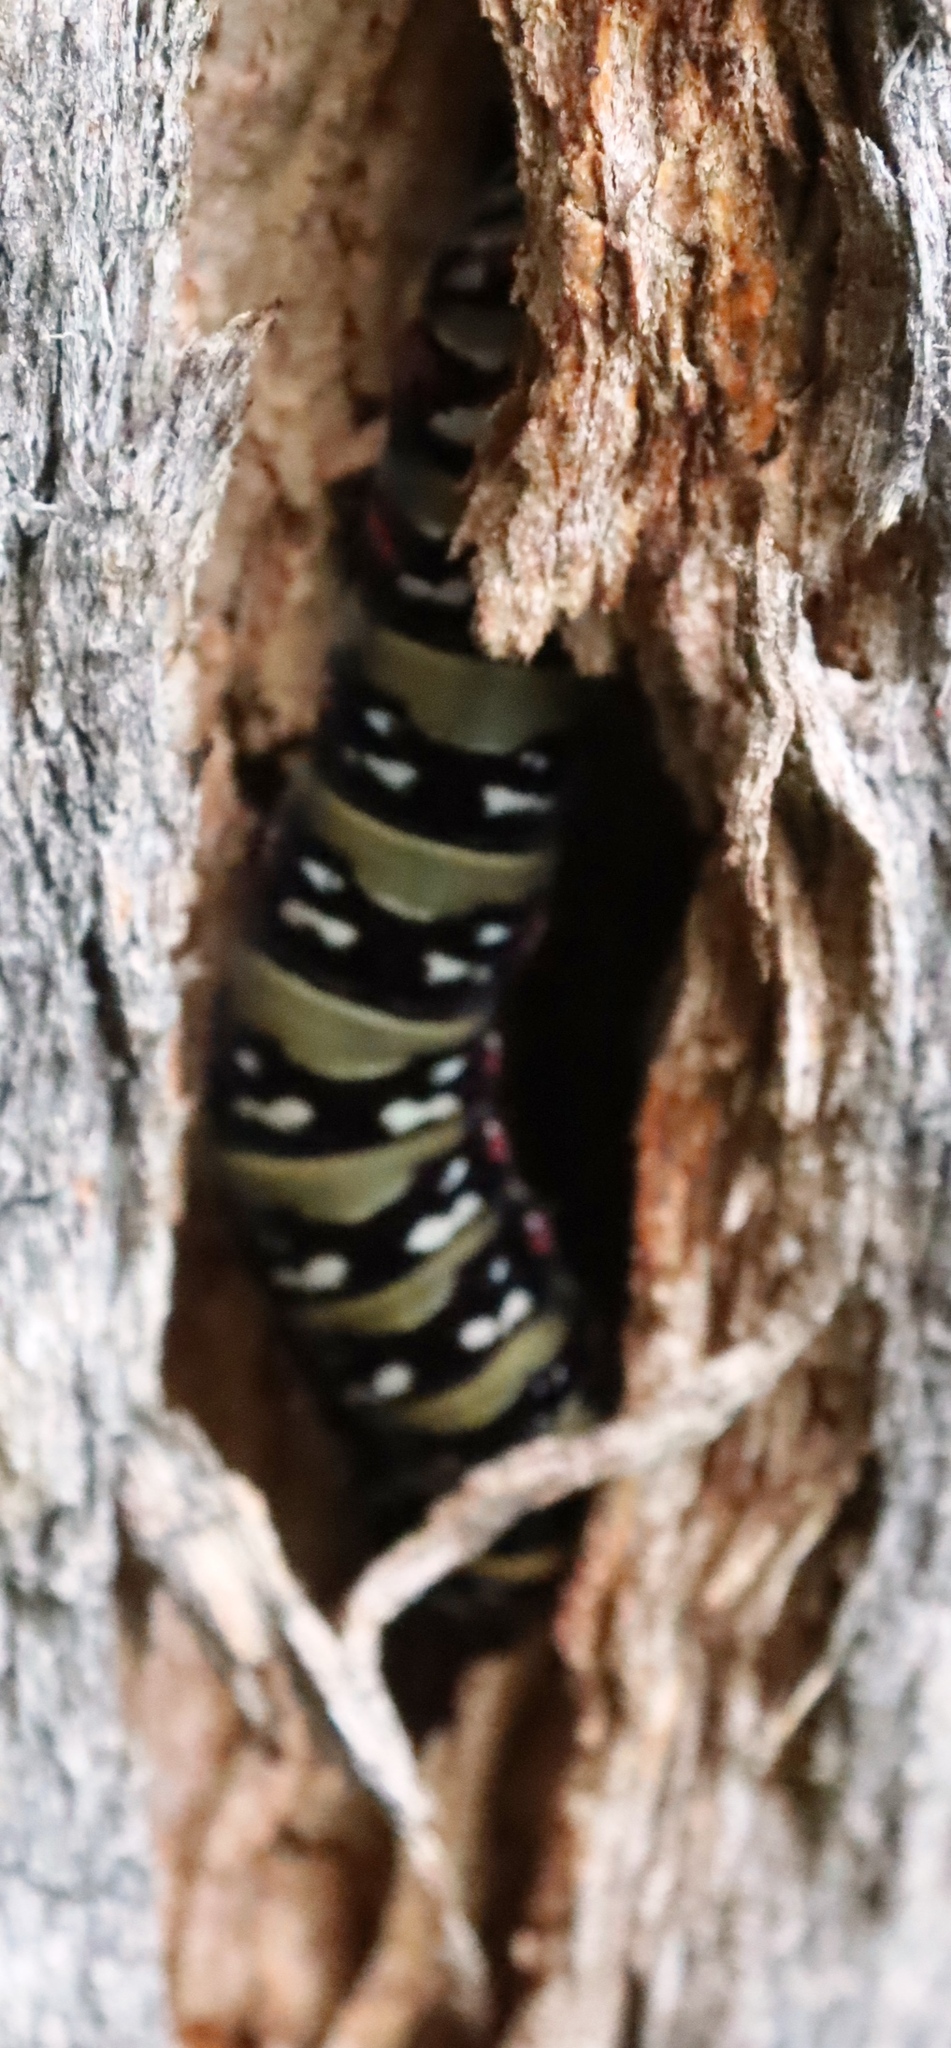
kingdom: Animalia
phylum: Arthropoda
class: Insecta
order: Lepidoptera
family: Noctuidae
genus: Klugeana
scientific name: Klugeana philoxalis
